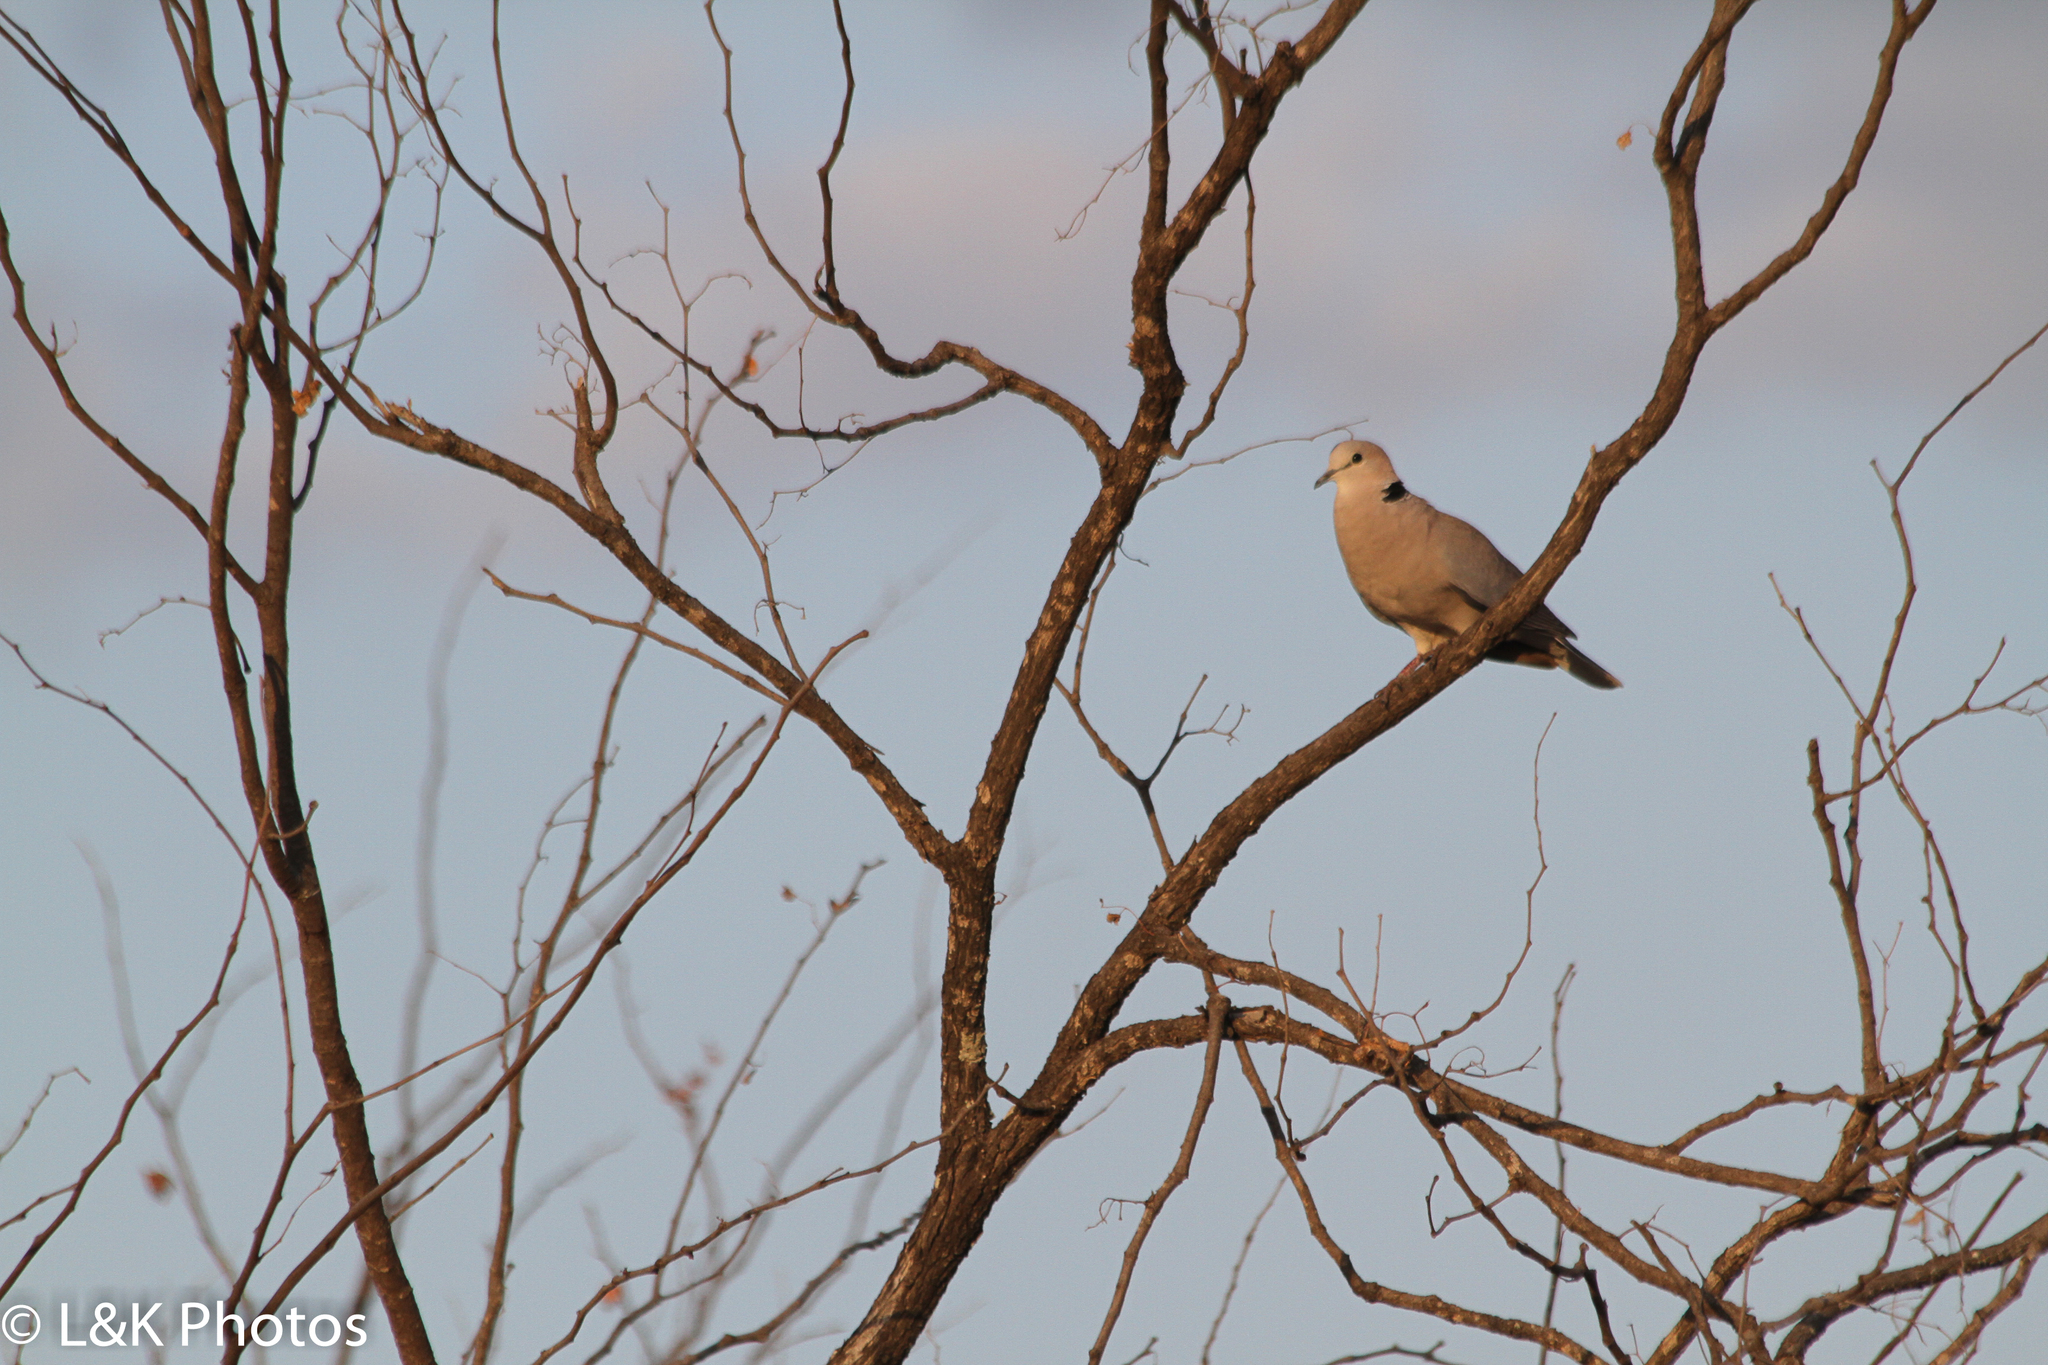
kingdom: Animalia
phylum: Chordata
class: Aves
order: Columbiformes
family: Columbidae
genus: Streptopelia
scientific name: Streptopelia capicola
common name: Ring-necked dove
